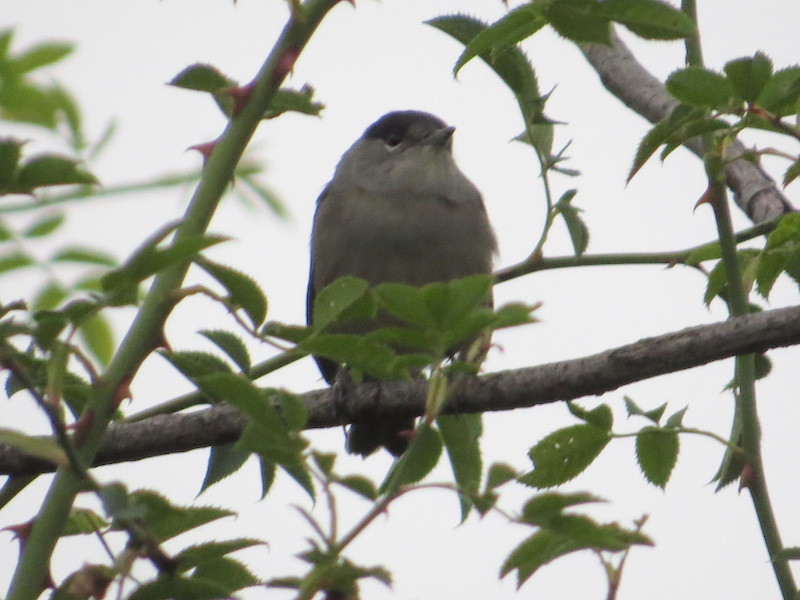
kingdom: Animalia
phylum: Chordata
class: Aves
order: Passeriformes
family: Sylviidae
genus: Sylvia
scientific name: Sylvia atricapilla
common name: Eurasian blackcap
